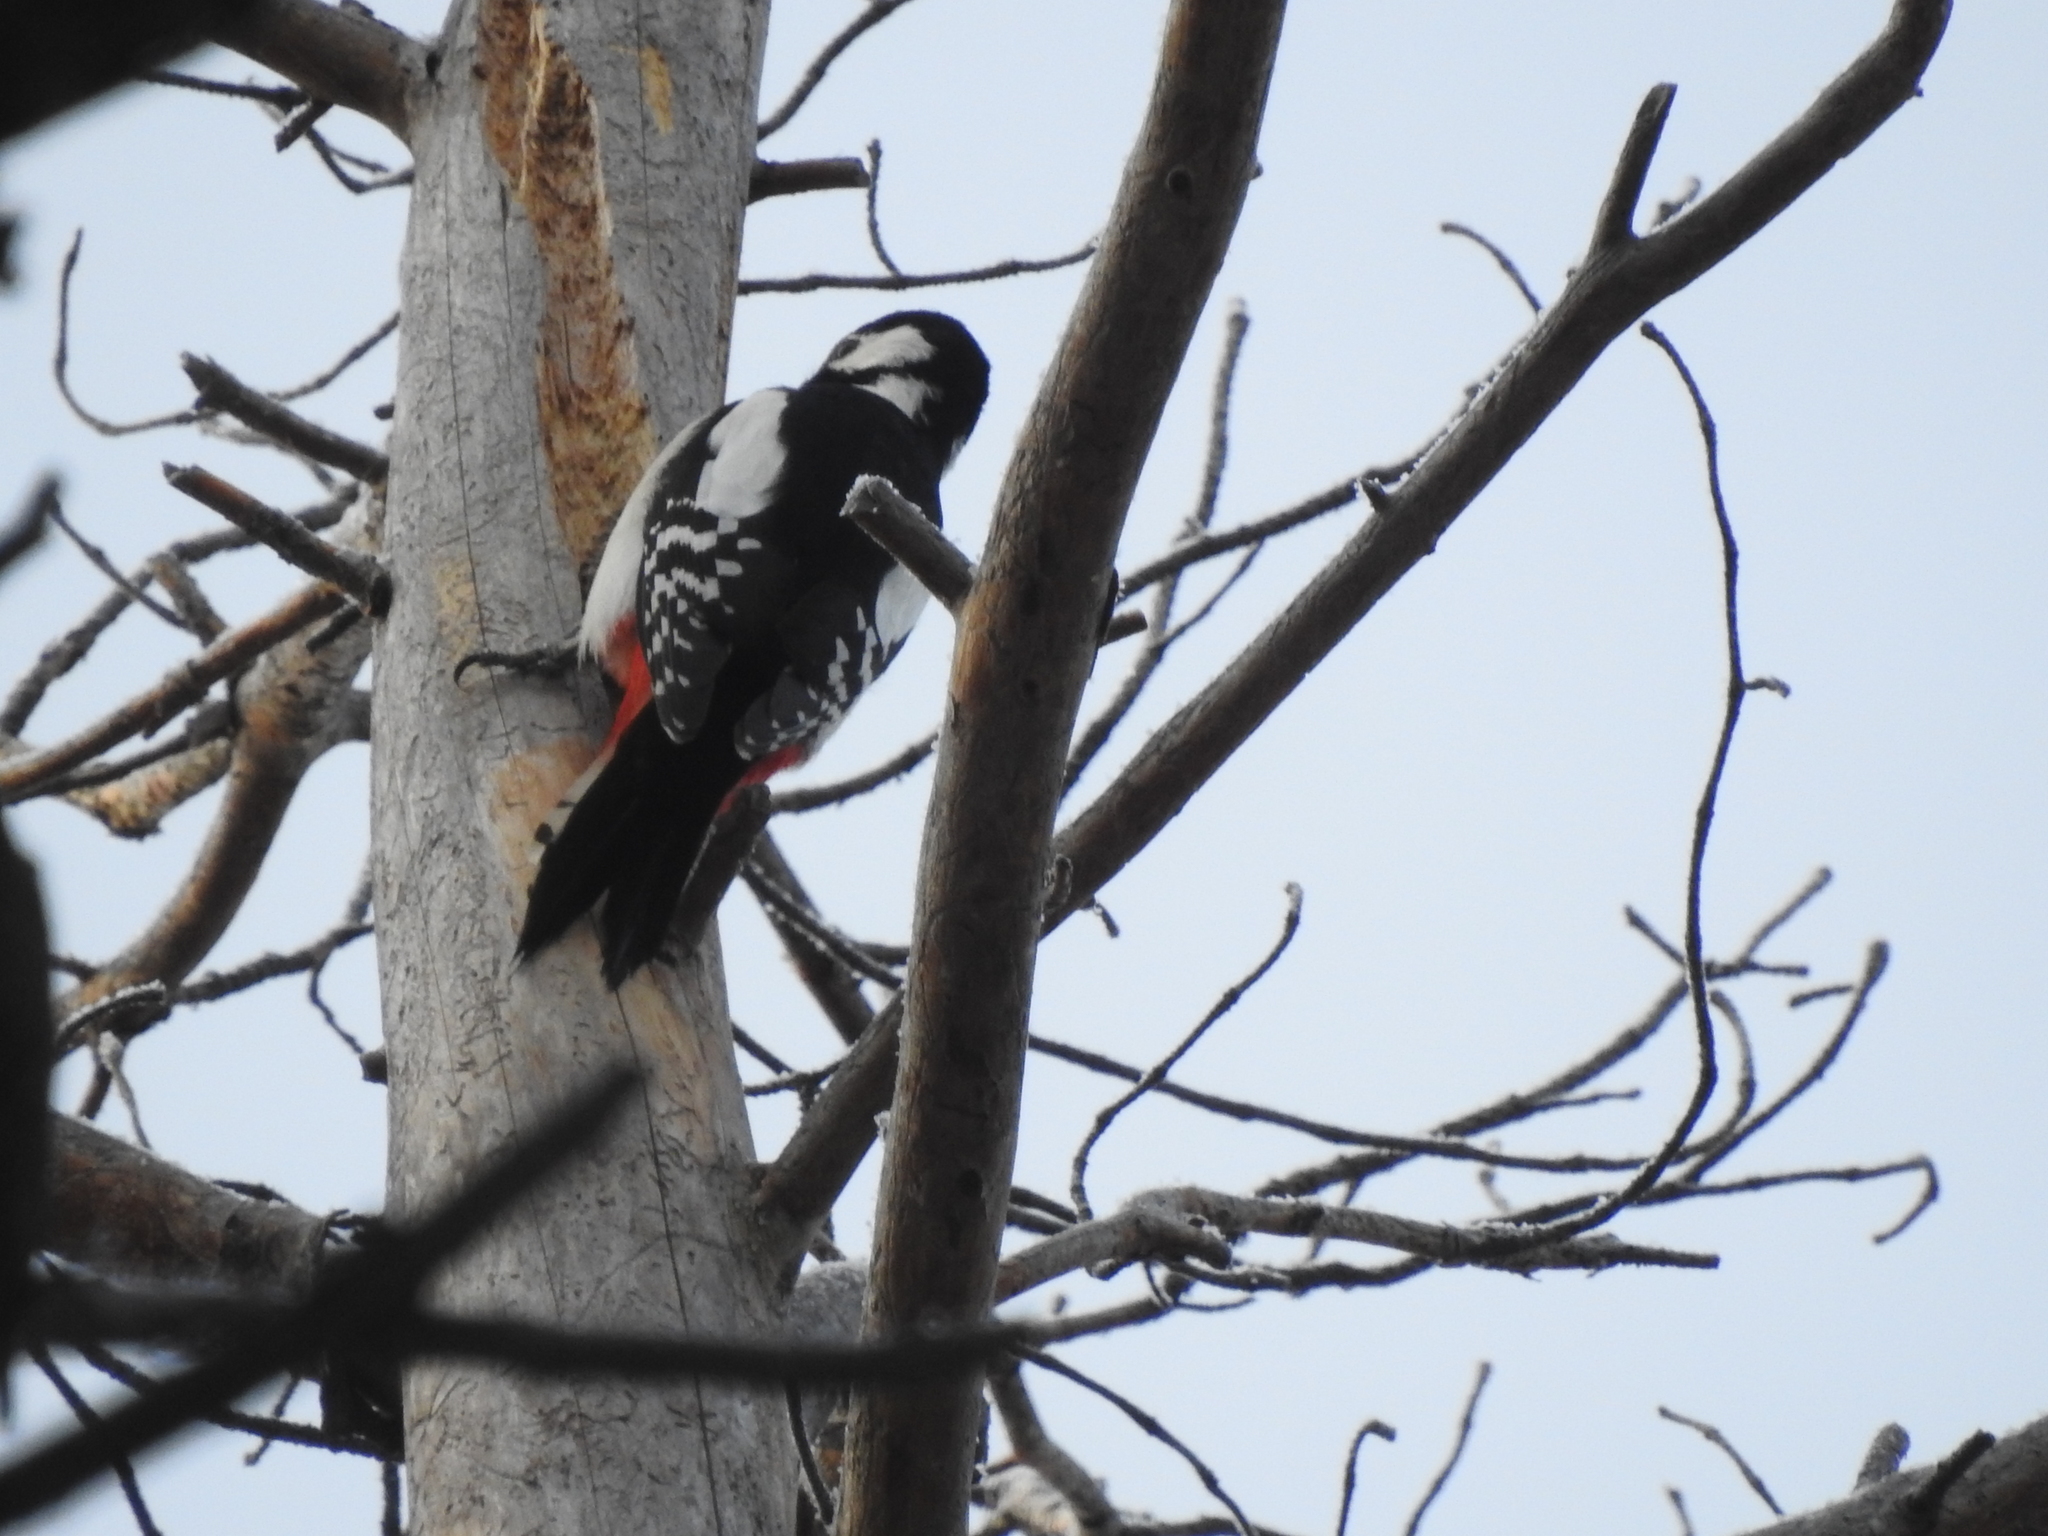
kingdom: Animalia
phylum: Chordata
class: Aves
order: Piciformes
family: Picidae
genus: Dendrocopos
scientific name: Dendrocopos major
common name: Great spotted woodpecker
